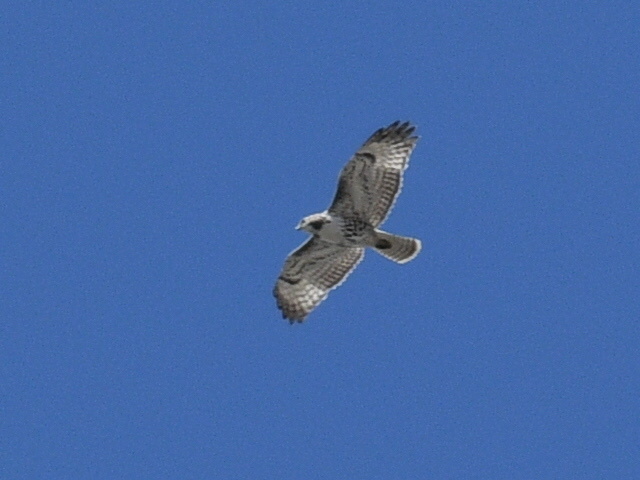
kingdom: Animalia
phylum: Chordata
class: Aves
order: Accipitriformes
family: Accipitridae
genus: Buteo
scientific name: Buteo jamaicensis
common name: Red-tailed hawk
